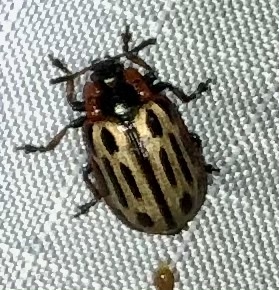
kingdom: Animalia
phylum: Arthropoda
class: Insecta
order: Coleoptera
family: Chrysomelidae
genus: Aethiopocassis
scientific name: Aethiopocassis scripta
